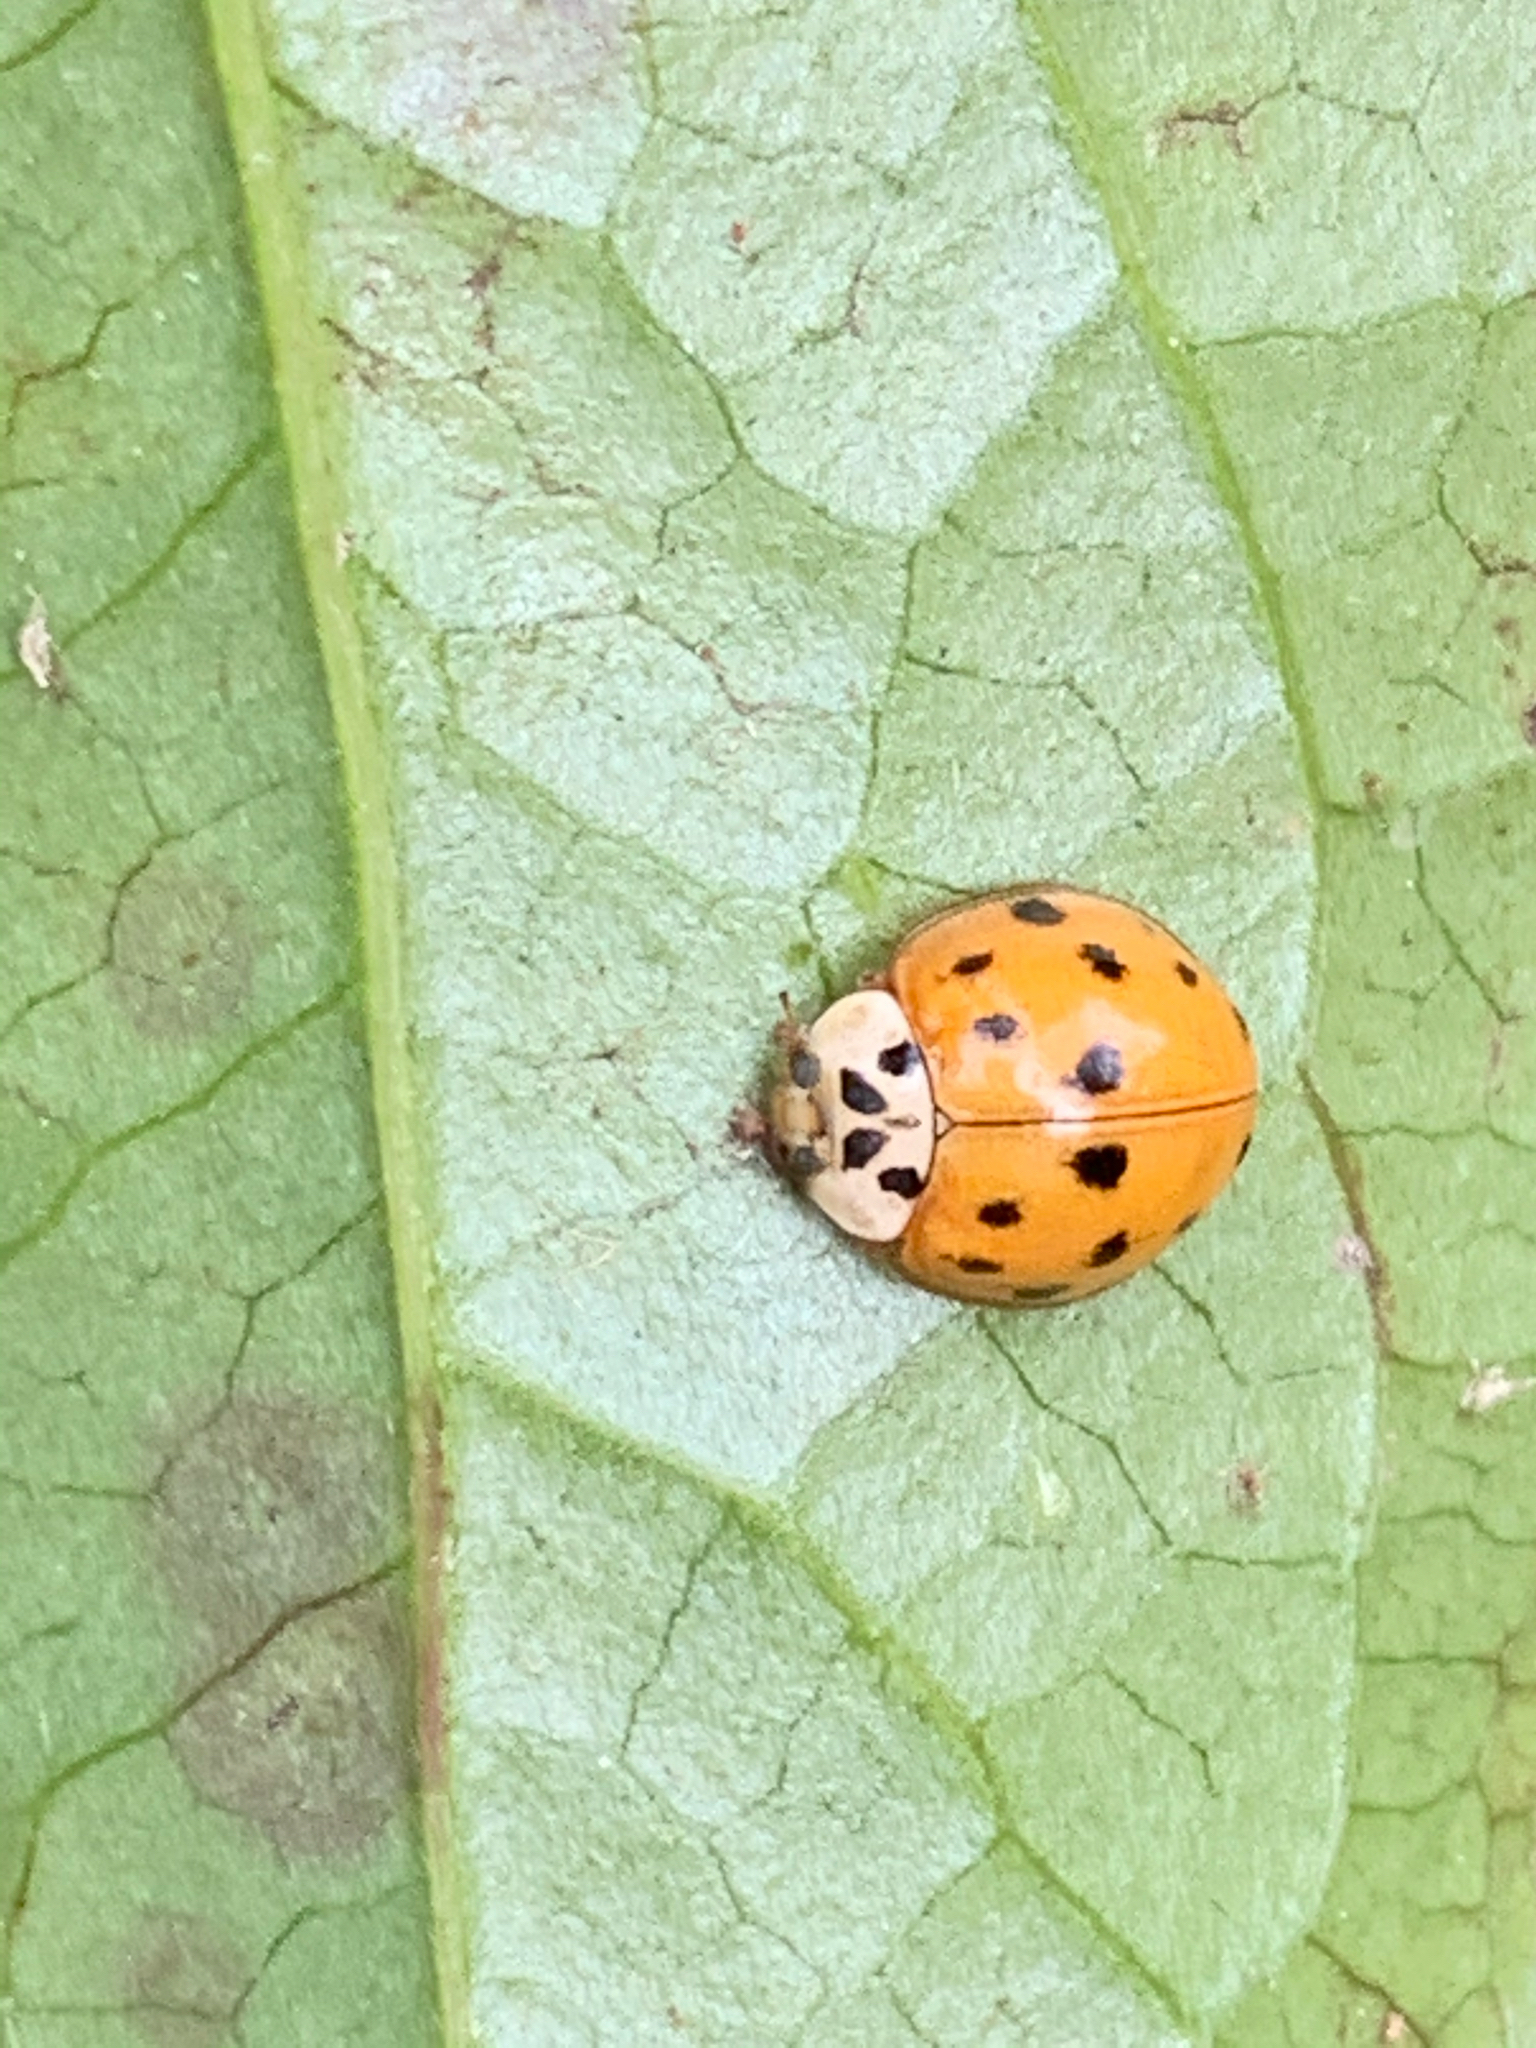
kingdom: Animalia
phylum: Arthropoda
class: Insecta
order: Coleoptera
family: Coccinellidae
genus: Harmonia
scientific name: Harmonia axyridis
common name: Harlequin ladybird
